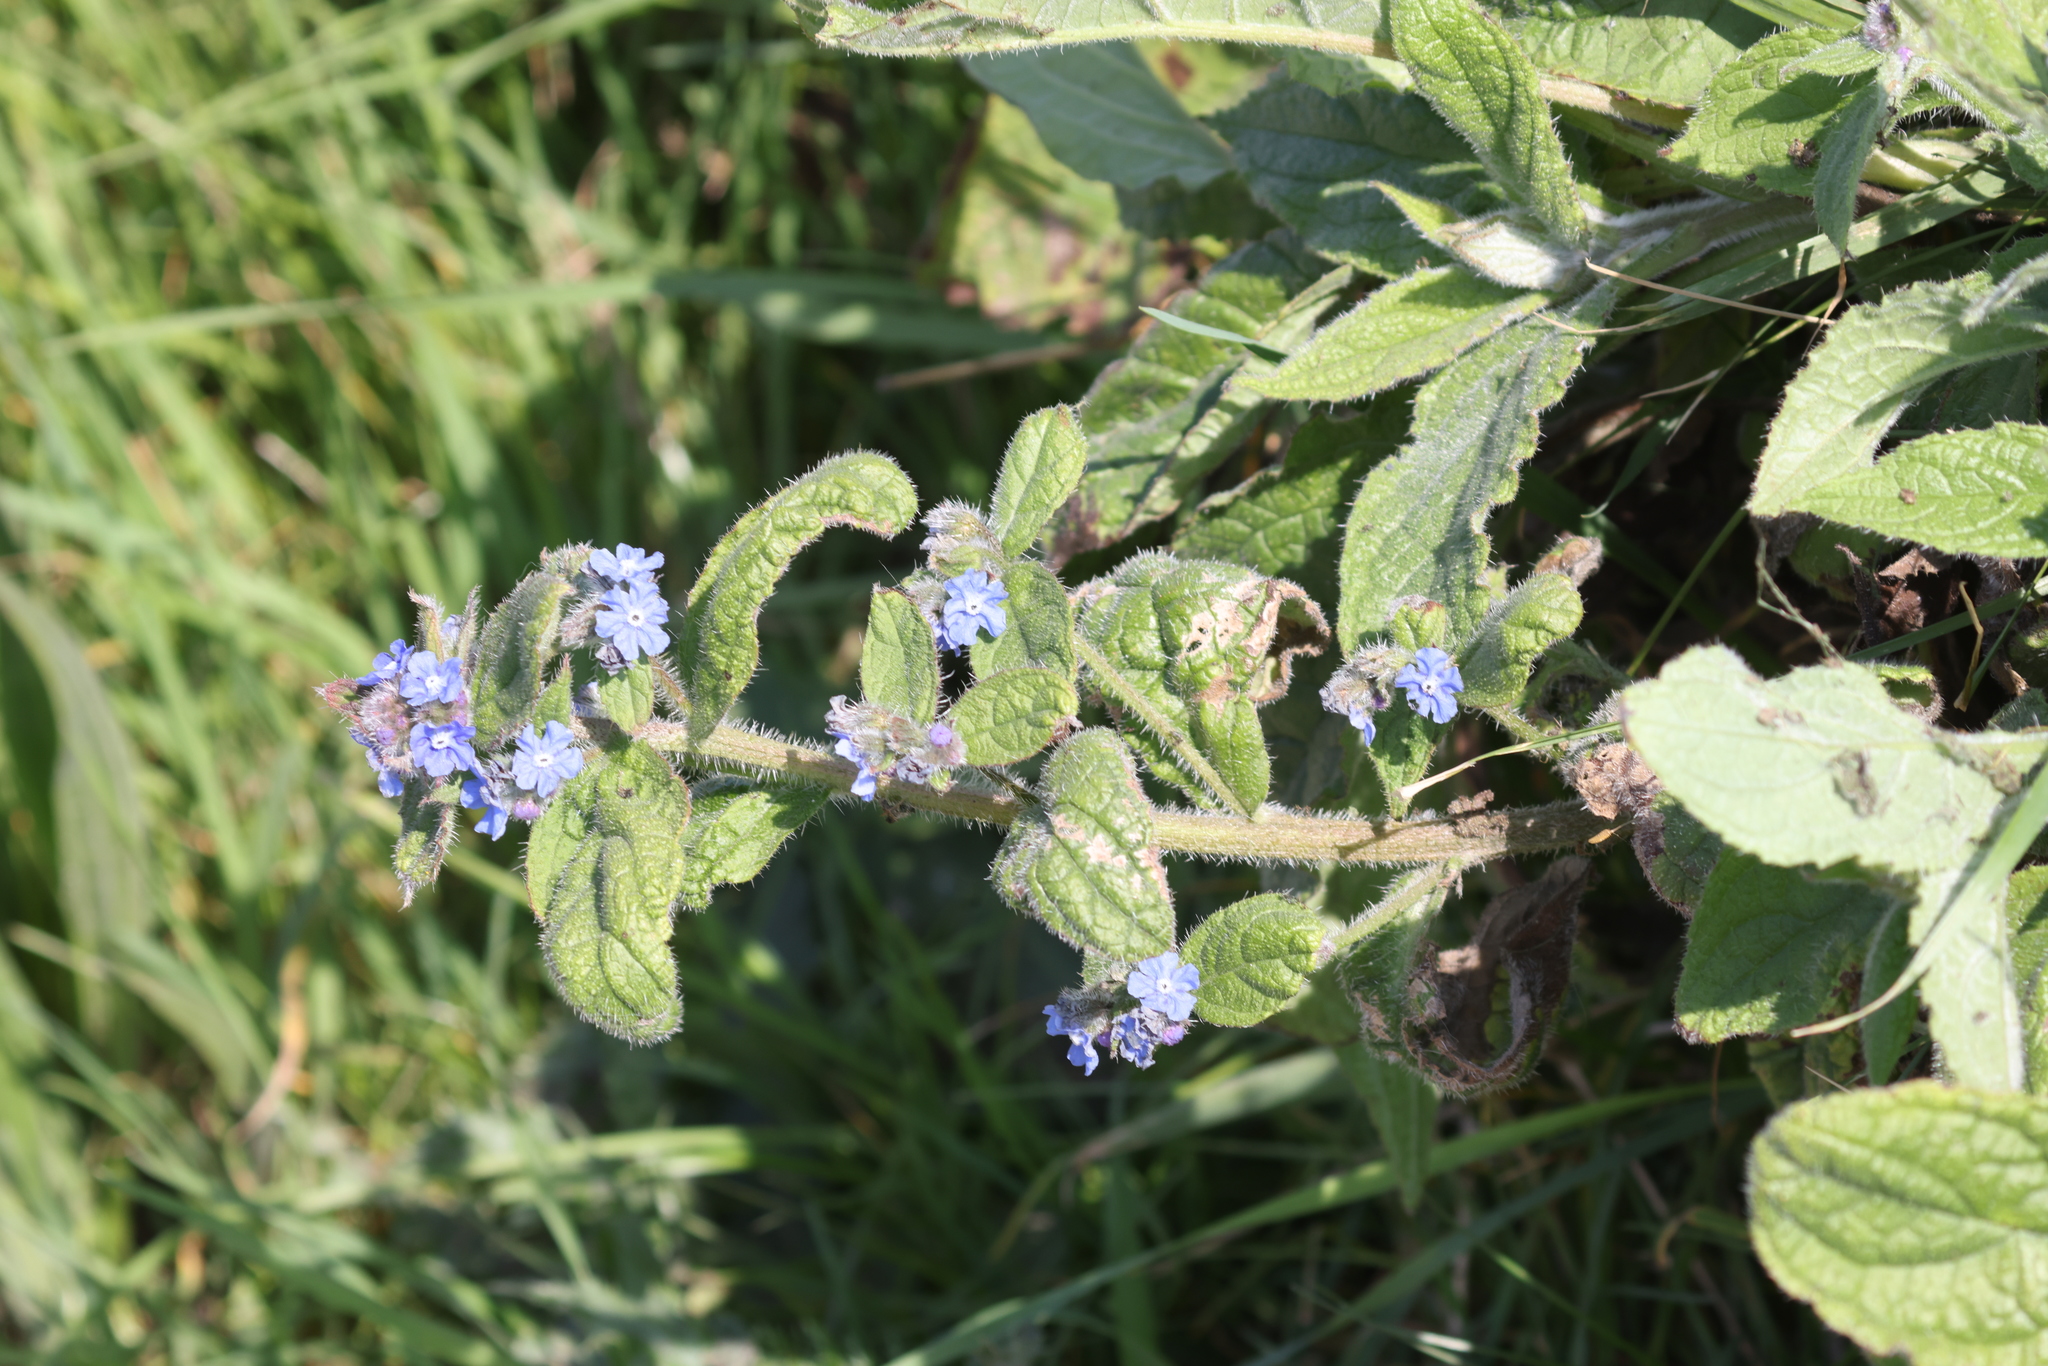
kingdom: Plantae
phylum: Tracheophyta
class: Magnoliopsida
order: Boraginales
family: Boraginaceae
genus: Pentaglottis
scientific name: Pentaglottis sempervirens
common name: Green alkanet
